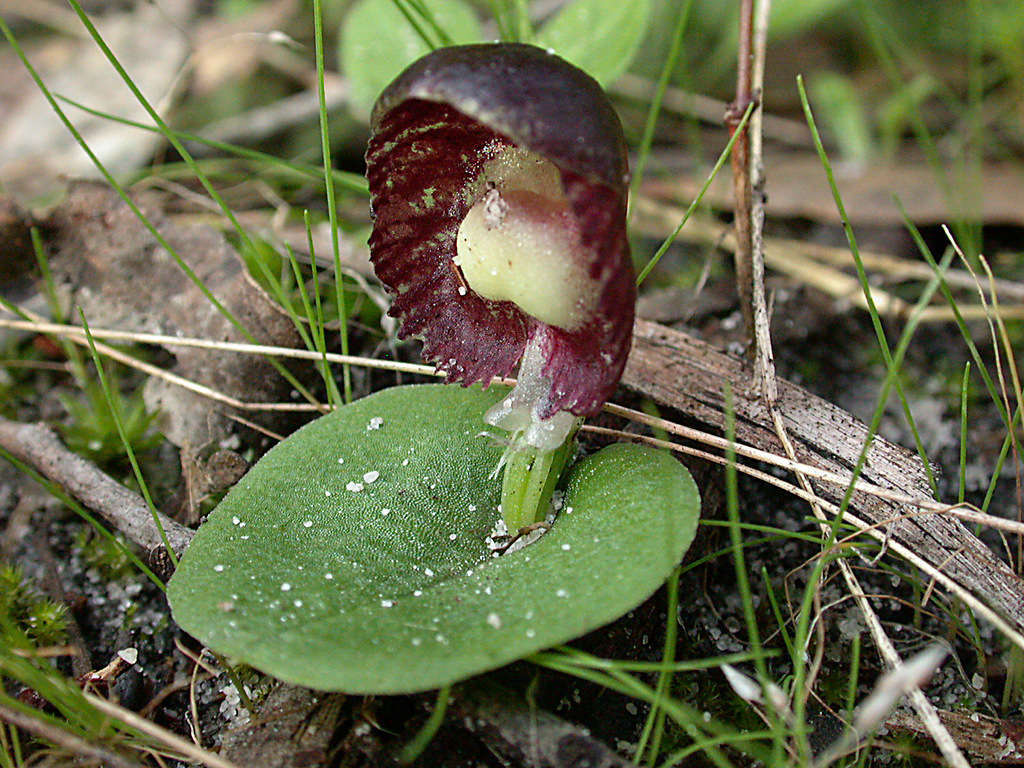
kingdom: Plantae
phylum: Tracheophyta
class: Liliopsida
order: Asparagales
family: Orchidaceae
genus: Corybas
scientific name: Corybas diemenicus
